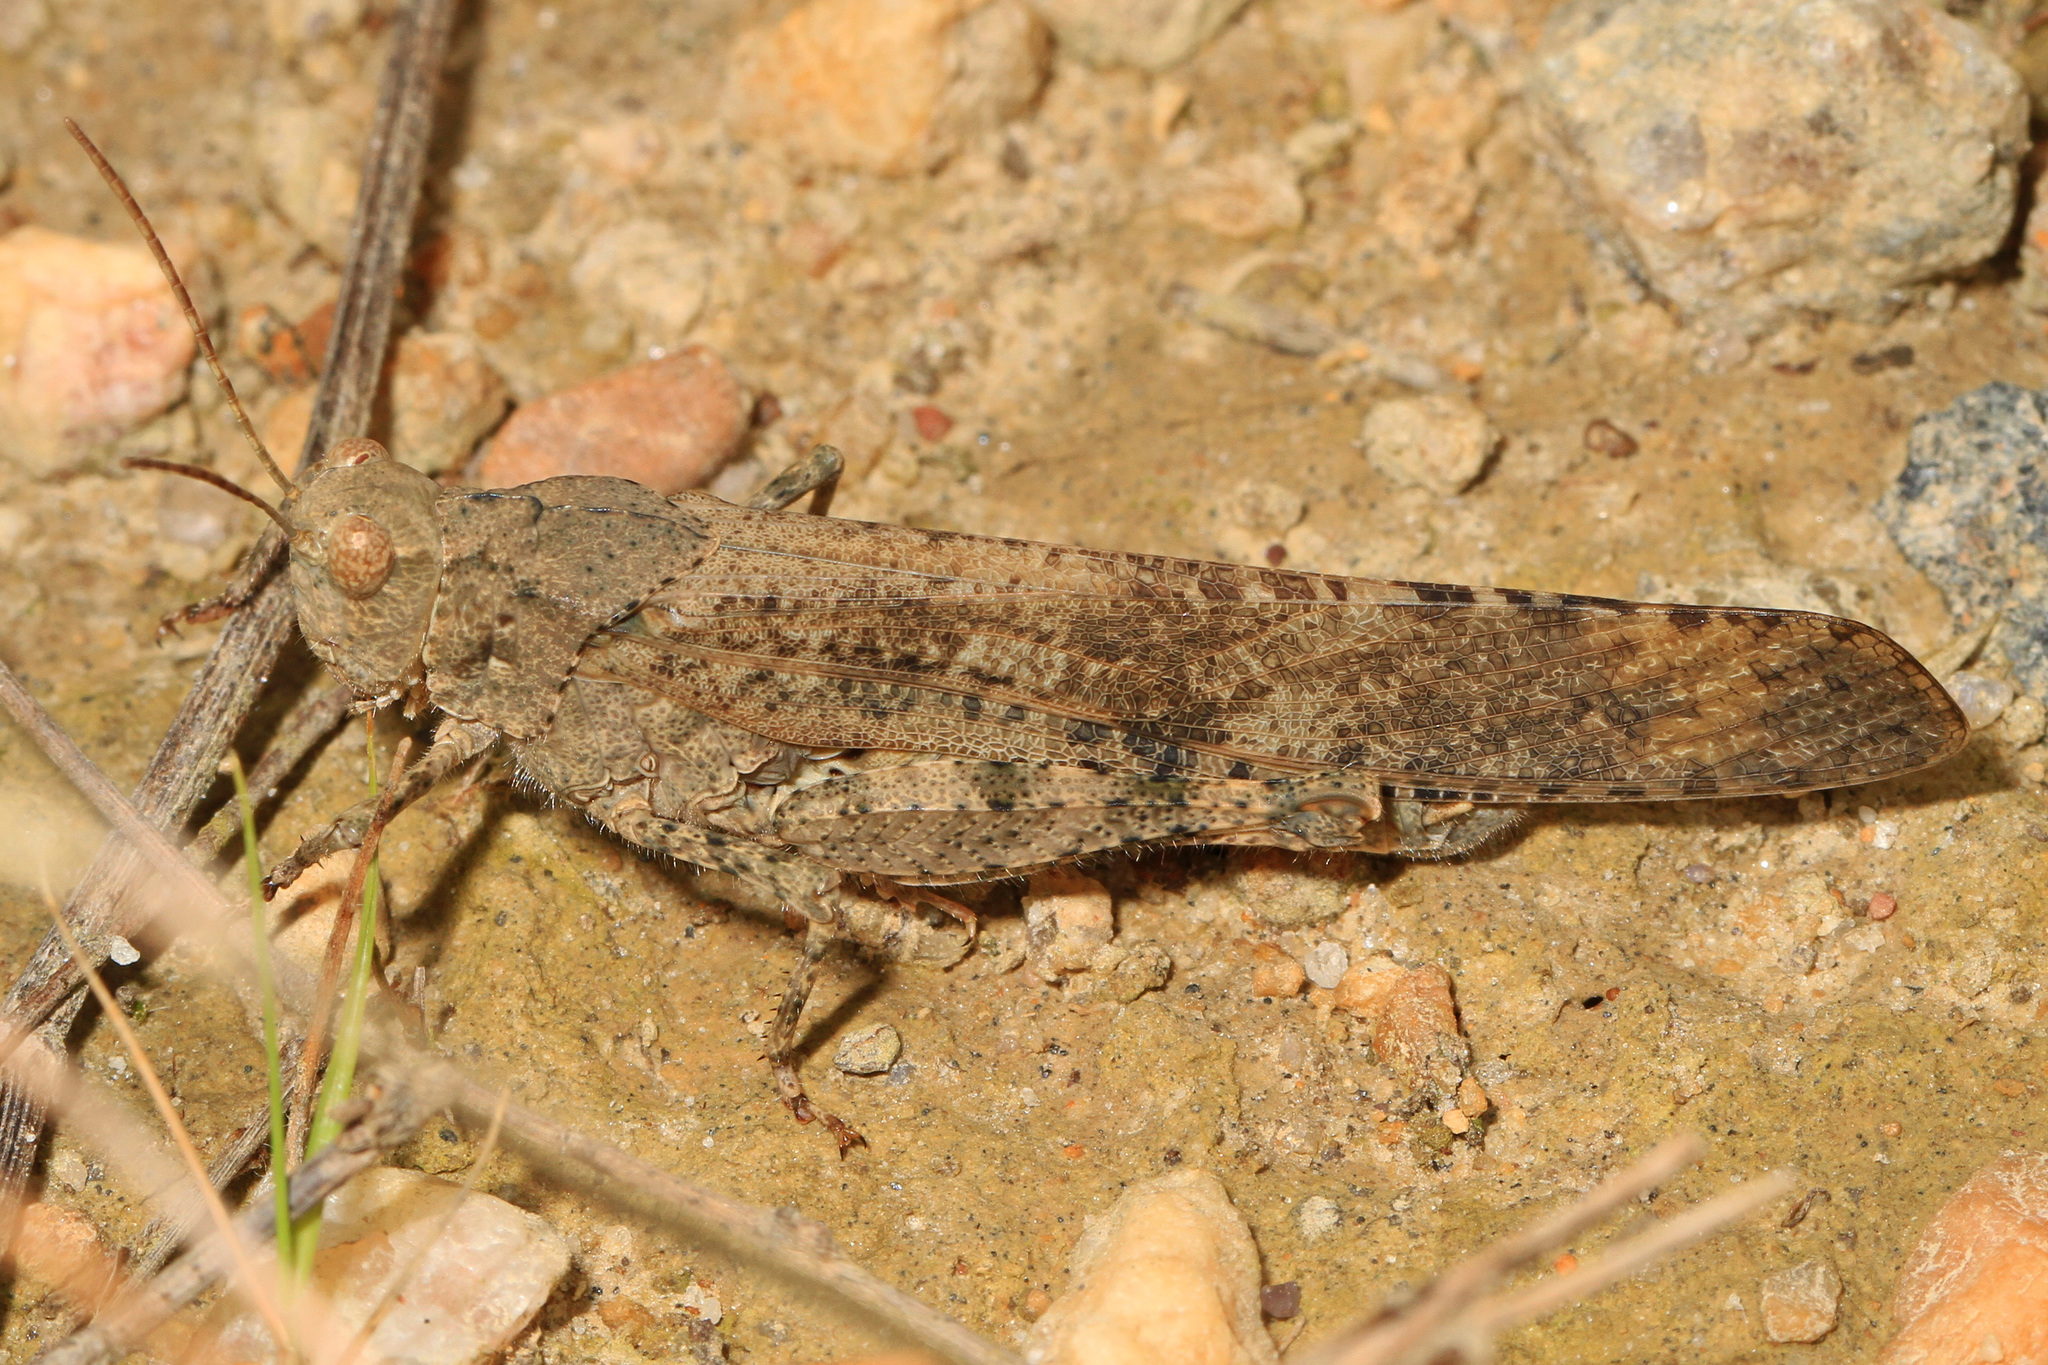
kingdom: Animalia
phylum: Arthropoda
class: Insecta
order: Orthoptera
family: Acrididae
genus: Dissosteira
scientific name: Dissosteira carolina
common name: Carolina grasshopper
